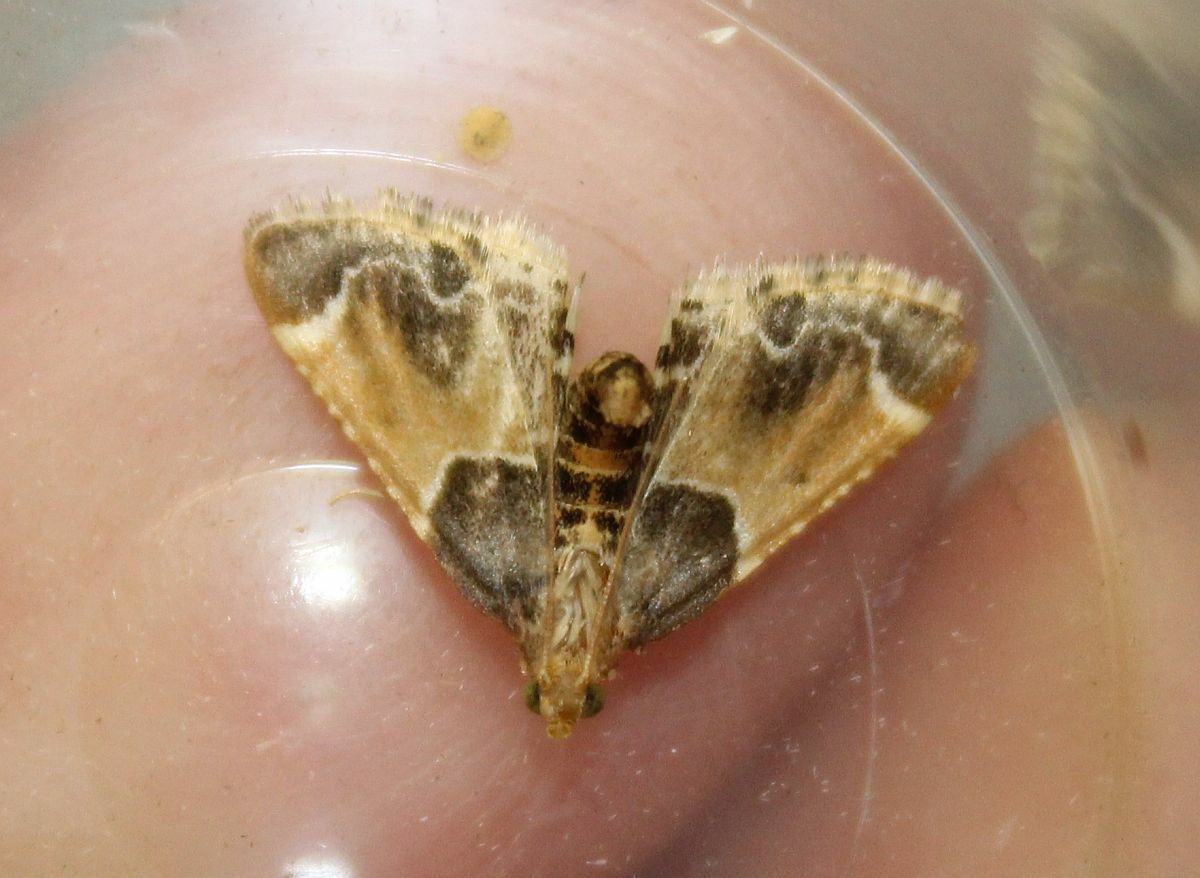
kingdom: Animalia
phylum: Arthropoda
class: Insecta
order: Lepidoptera
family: Pyralidae
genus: Pyralis
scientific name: Pyralis farinalis
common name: Meal moth
